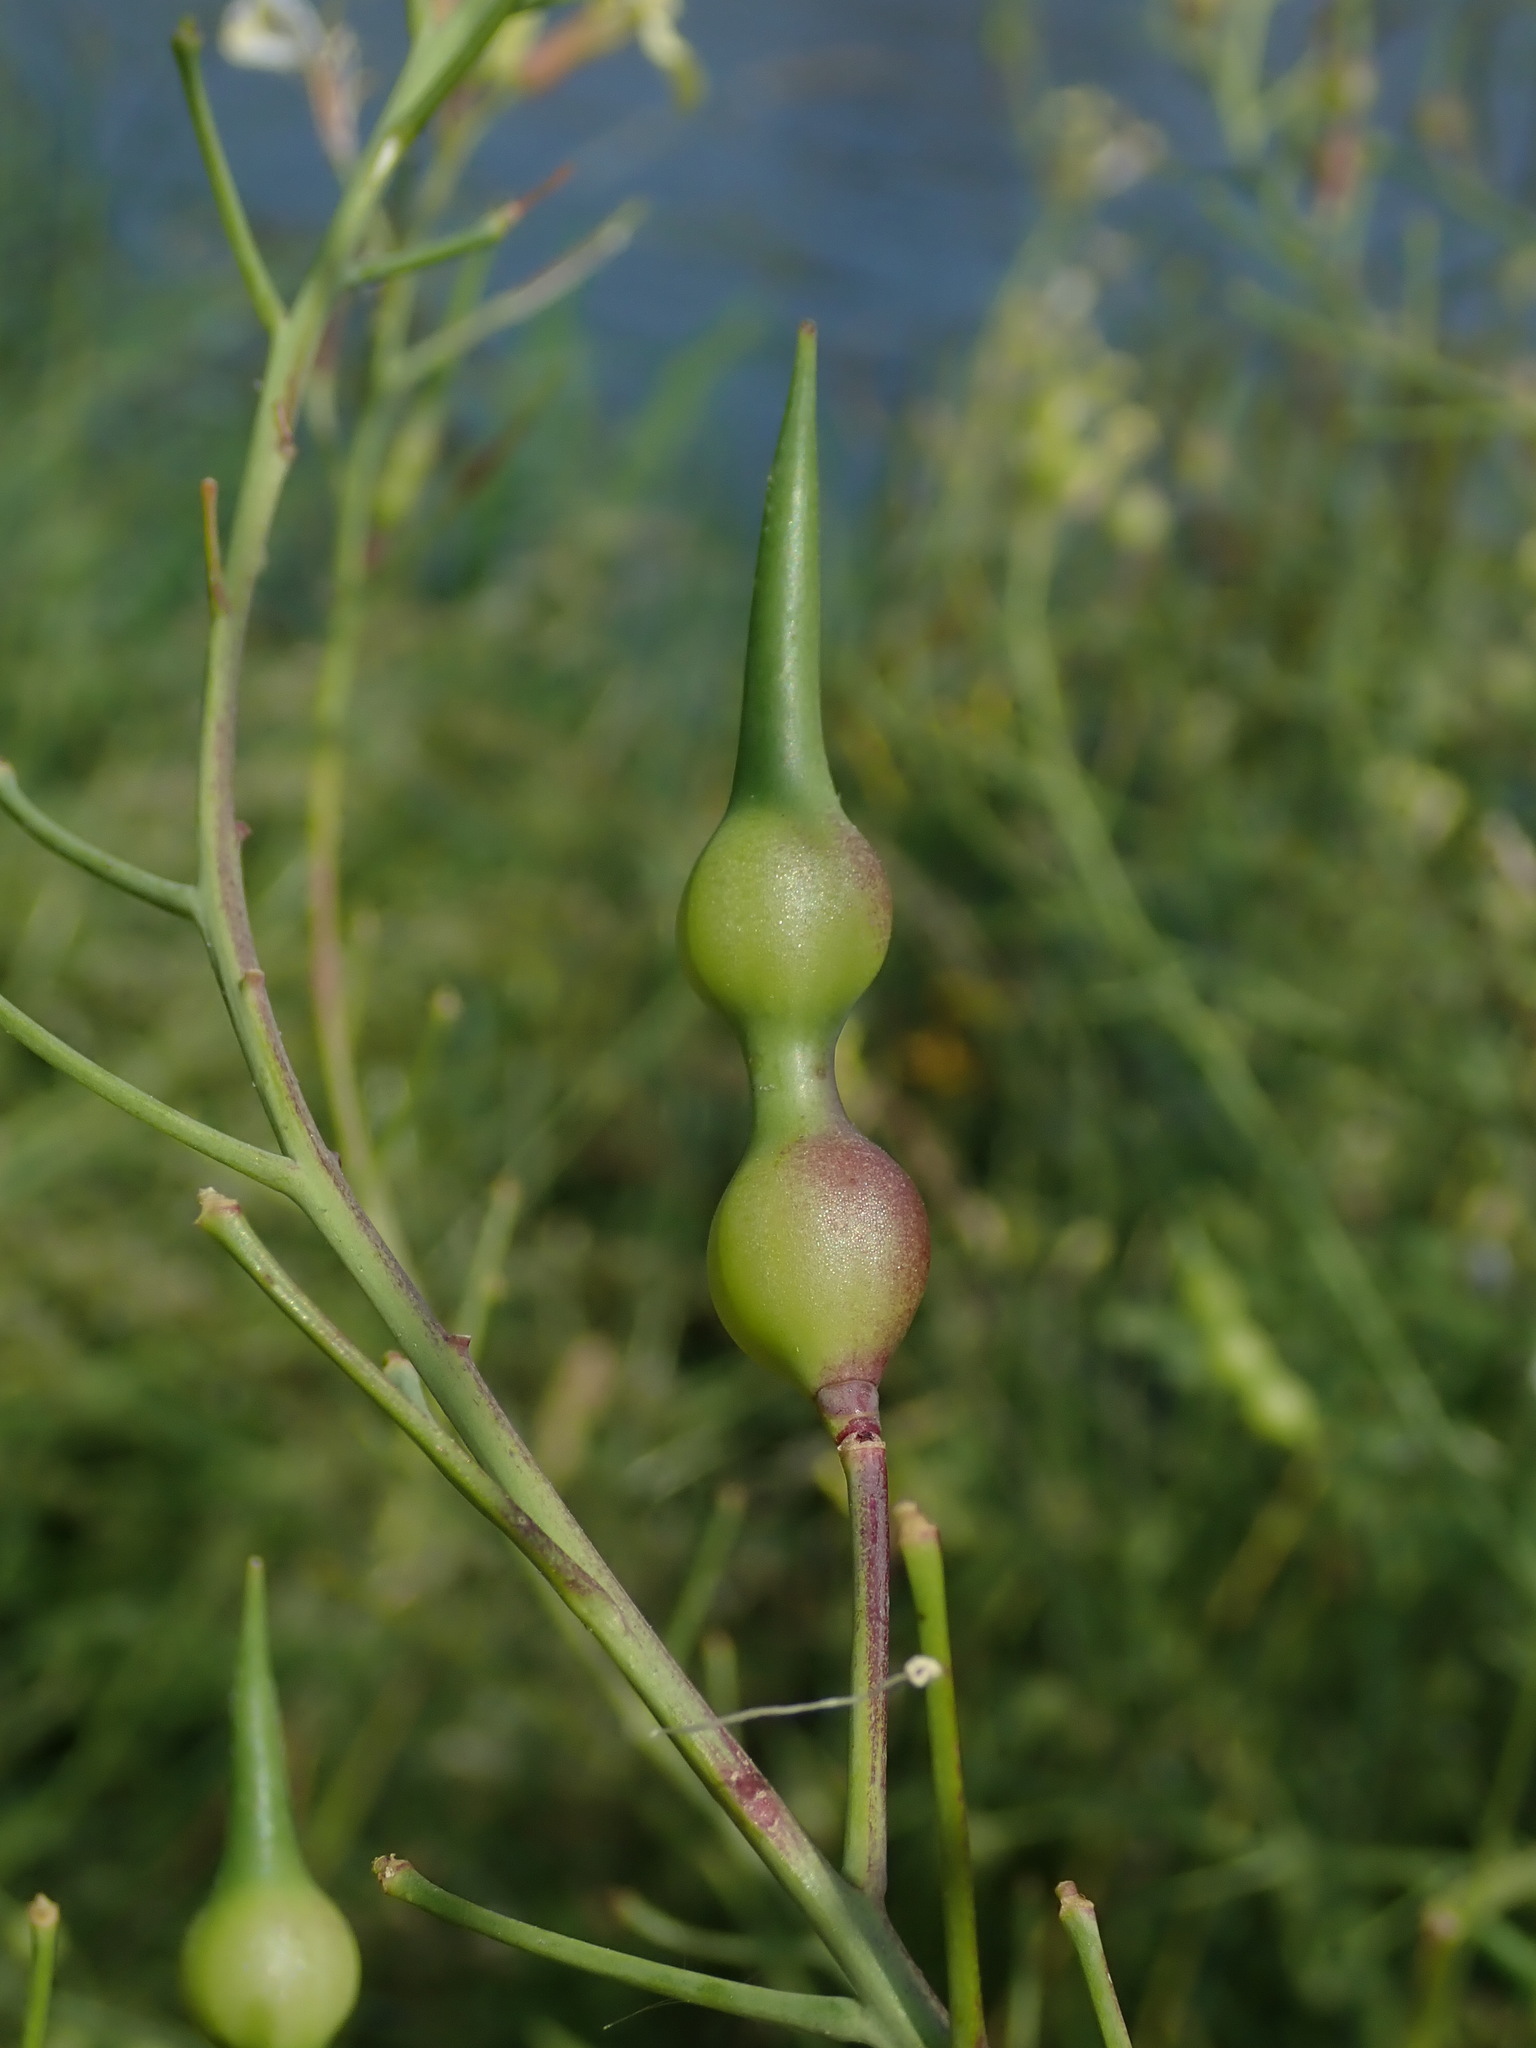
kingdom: Plantae
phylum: Tracheophyta
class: Magnoliopsida
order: Brassicales
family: Brassicaceae
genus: Raphanus
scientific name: Raphanus raphanistrum
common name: Wild radish
